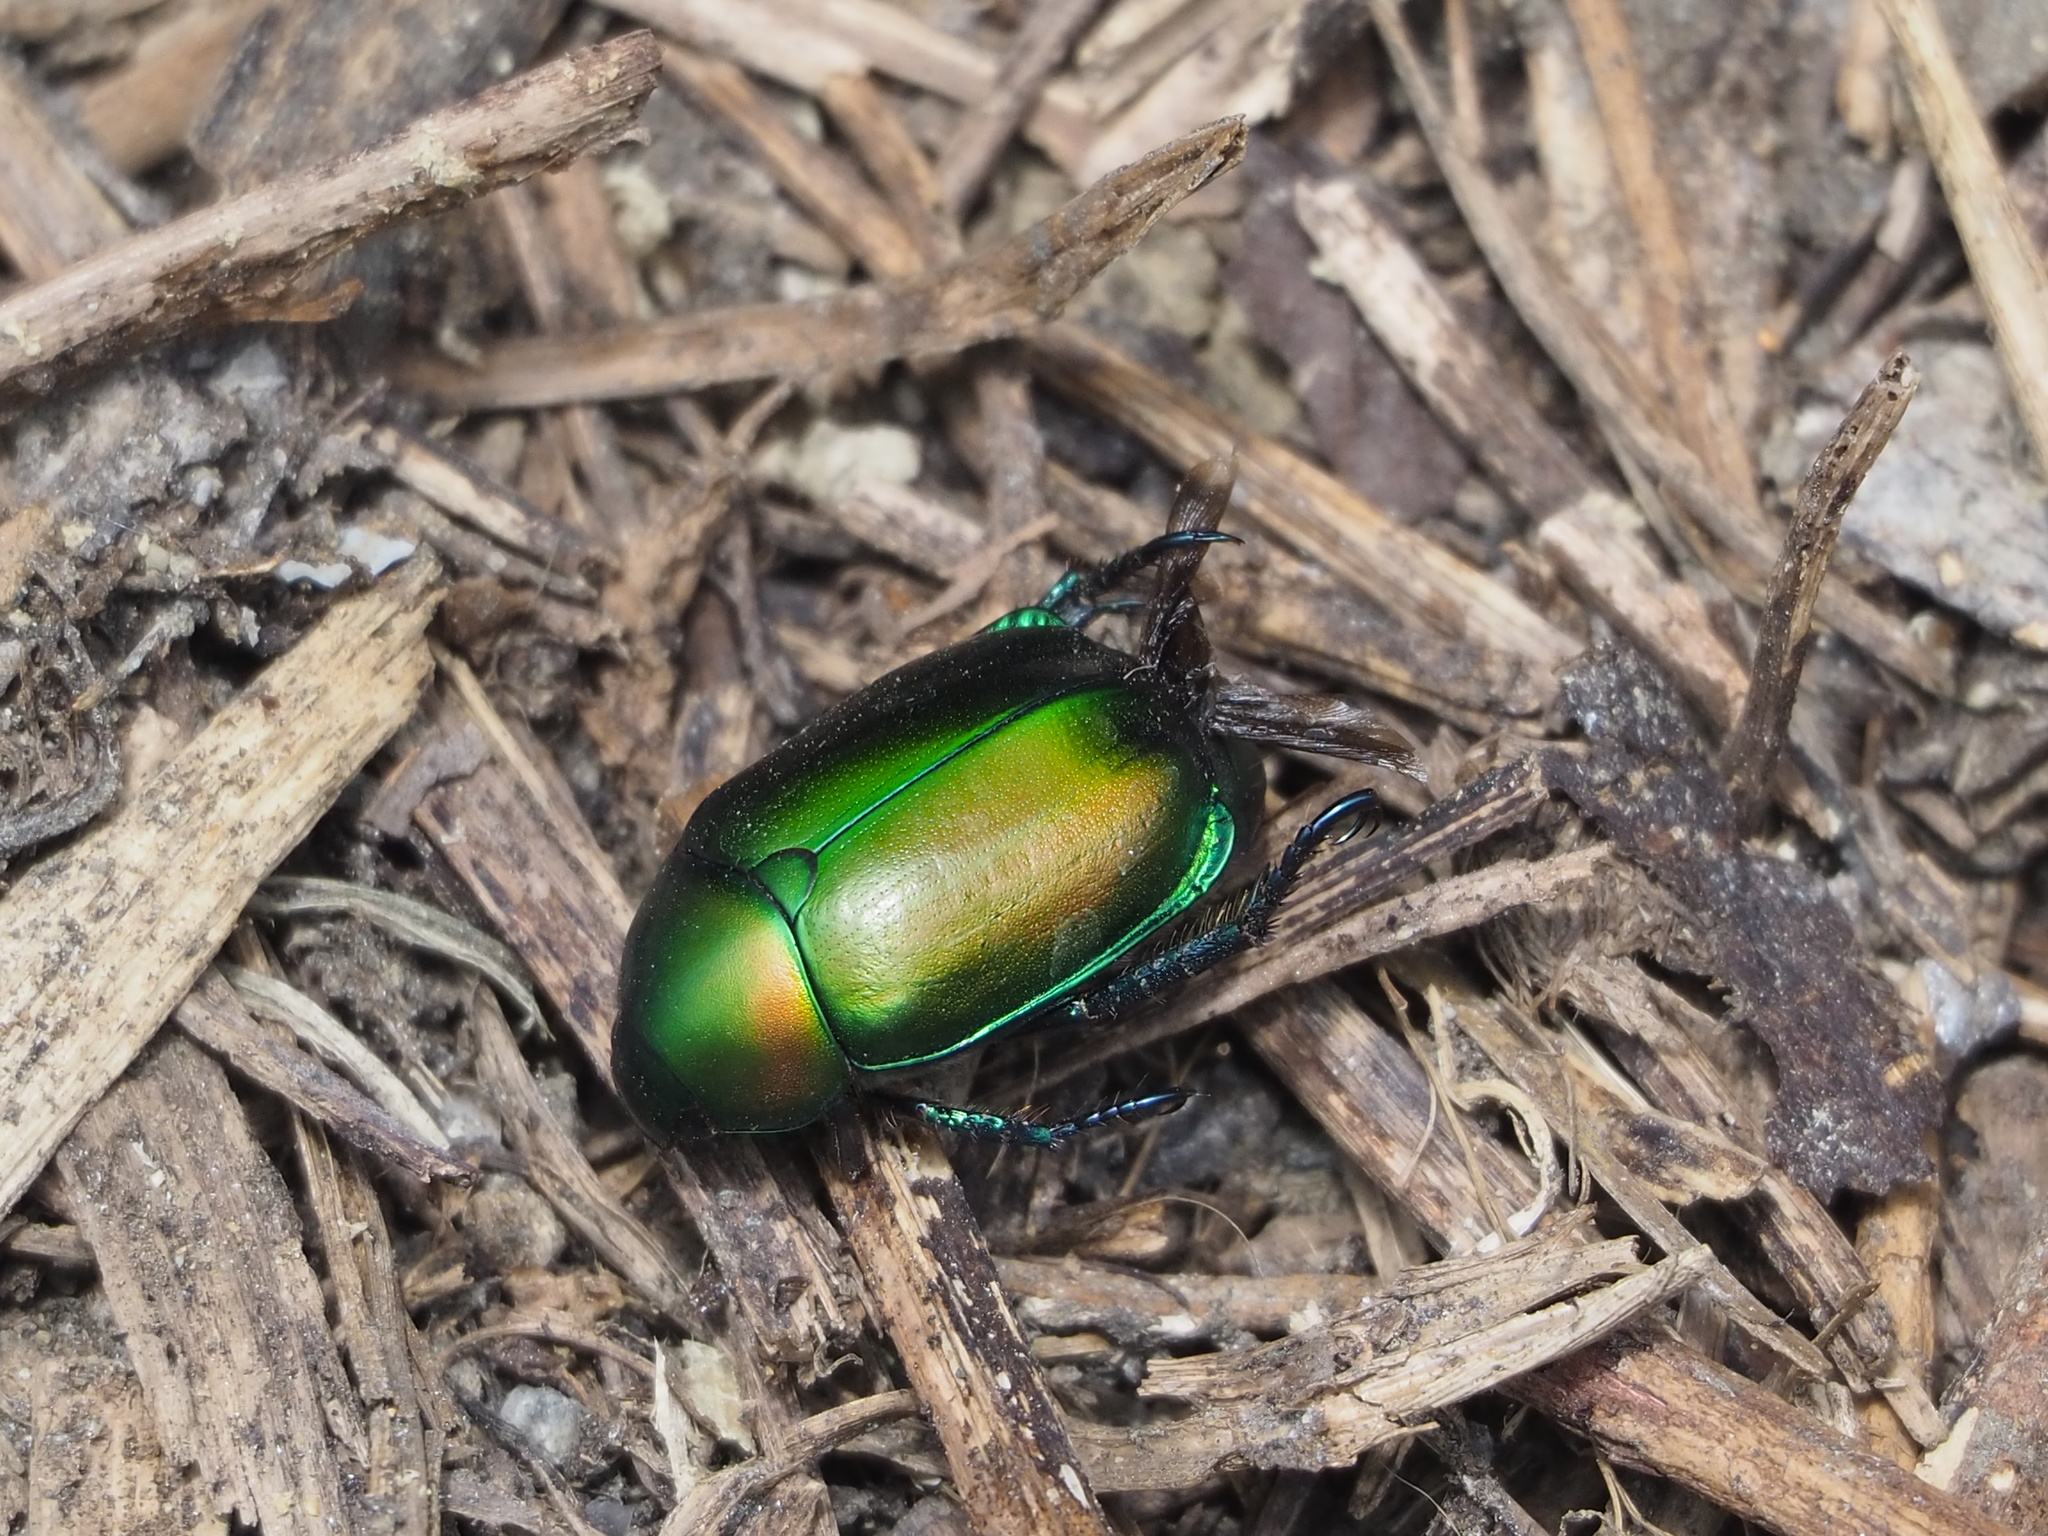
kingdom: Animalia
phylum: Arthropoda
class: Insecta
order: Coleoptera
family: Scarabaeidae
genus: Anomala
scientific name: Anomala expansa
